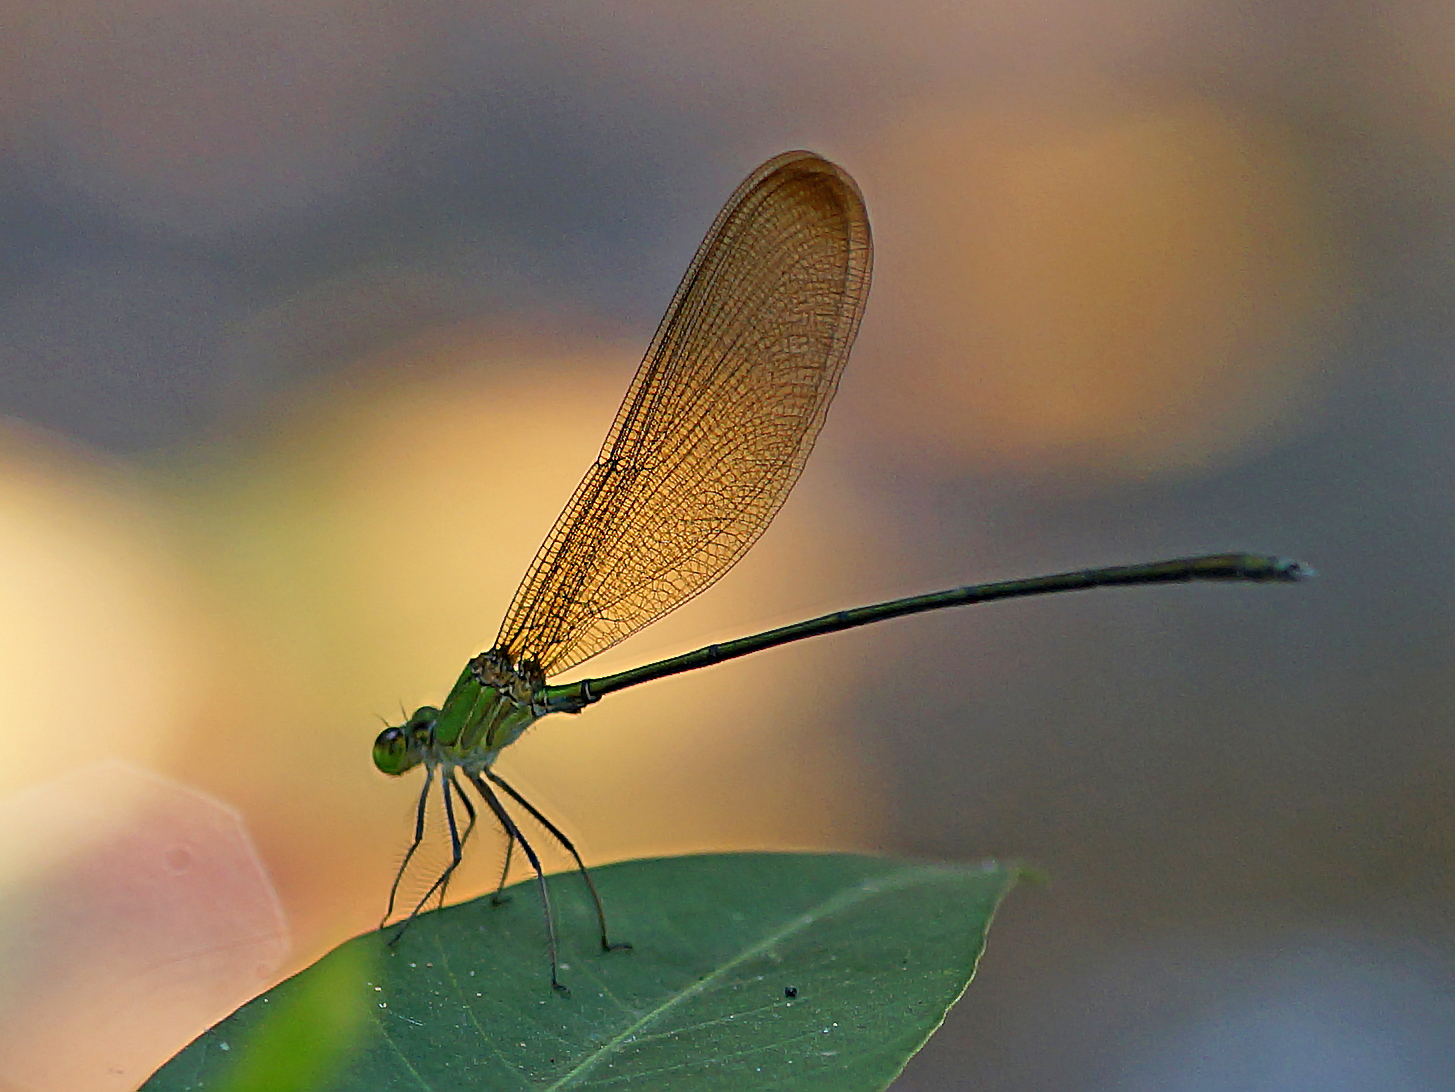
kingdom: Animalia
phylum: Arthropoda
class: Insecta
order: Odonata
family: Calopterygidae
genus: Vestalis
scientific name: Vestalis gracilis
